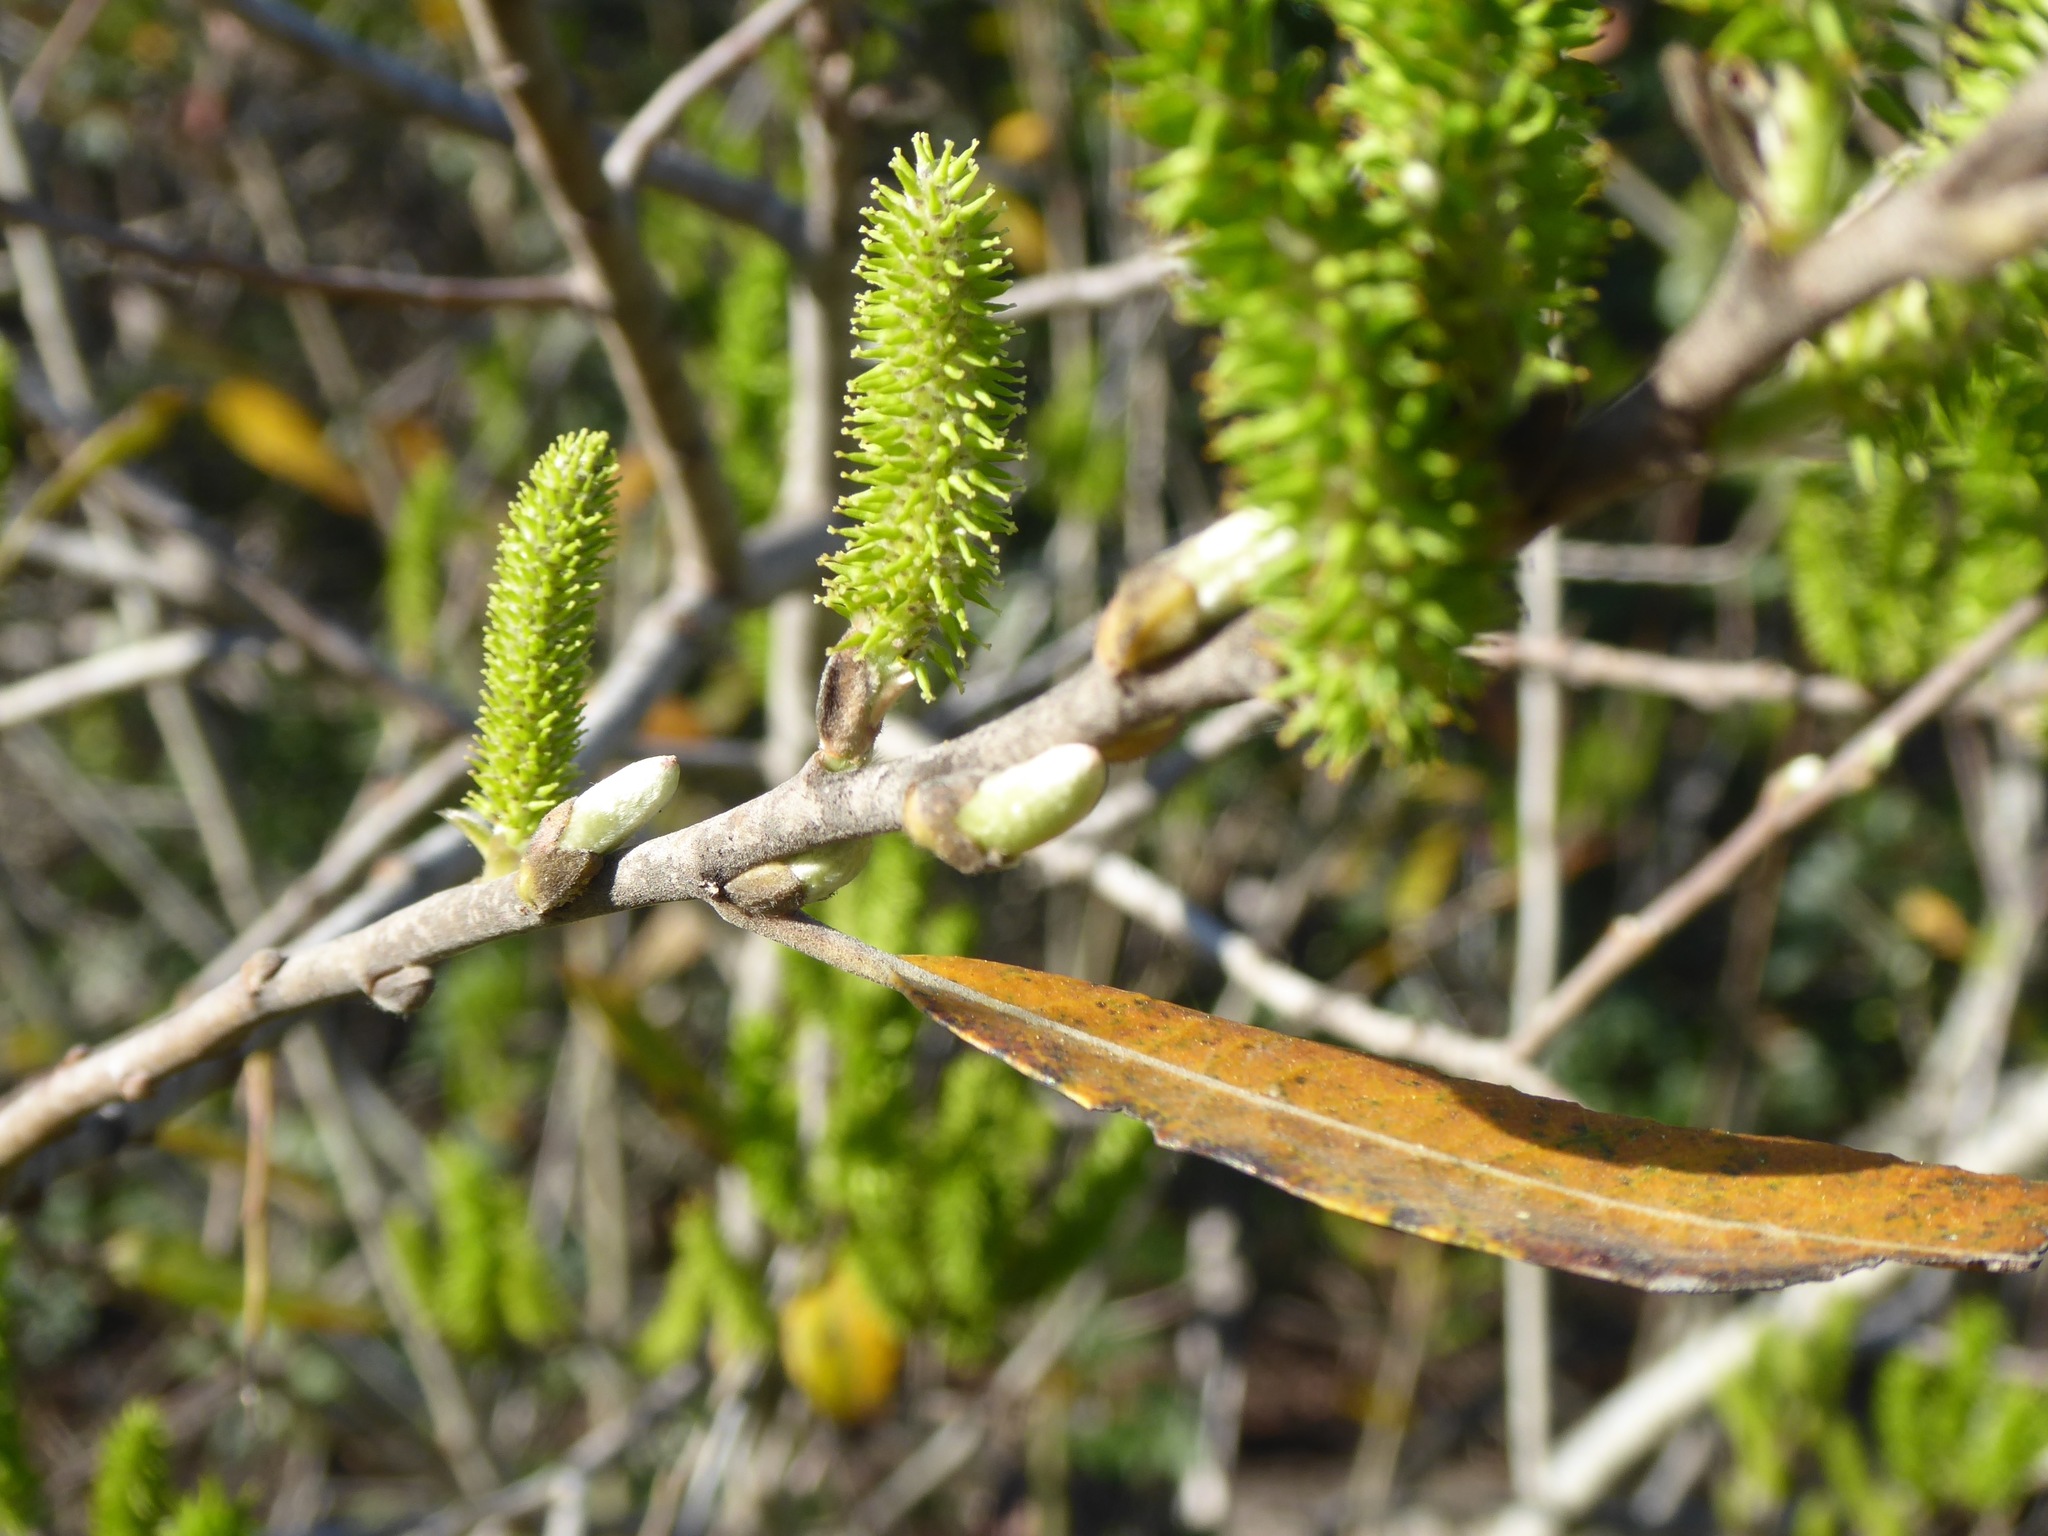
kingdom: Plantae
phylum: Tracheophyta
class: Magnoliopsida
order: Malpighiales
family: Salicaceae
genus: Salix
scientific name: Salix lasiolepis
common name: Arroyo willow
